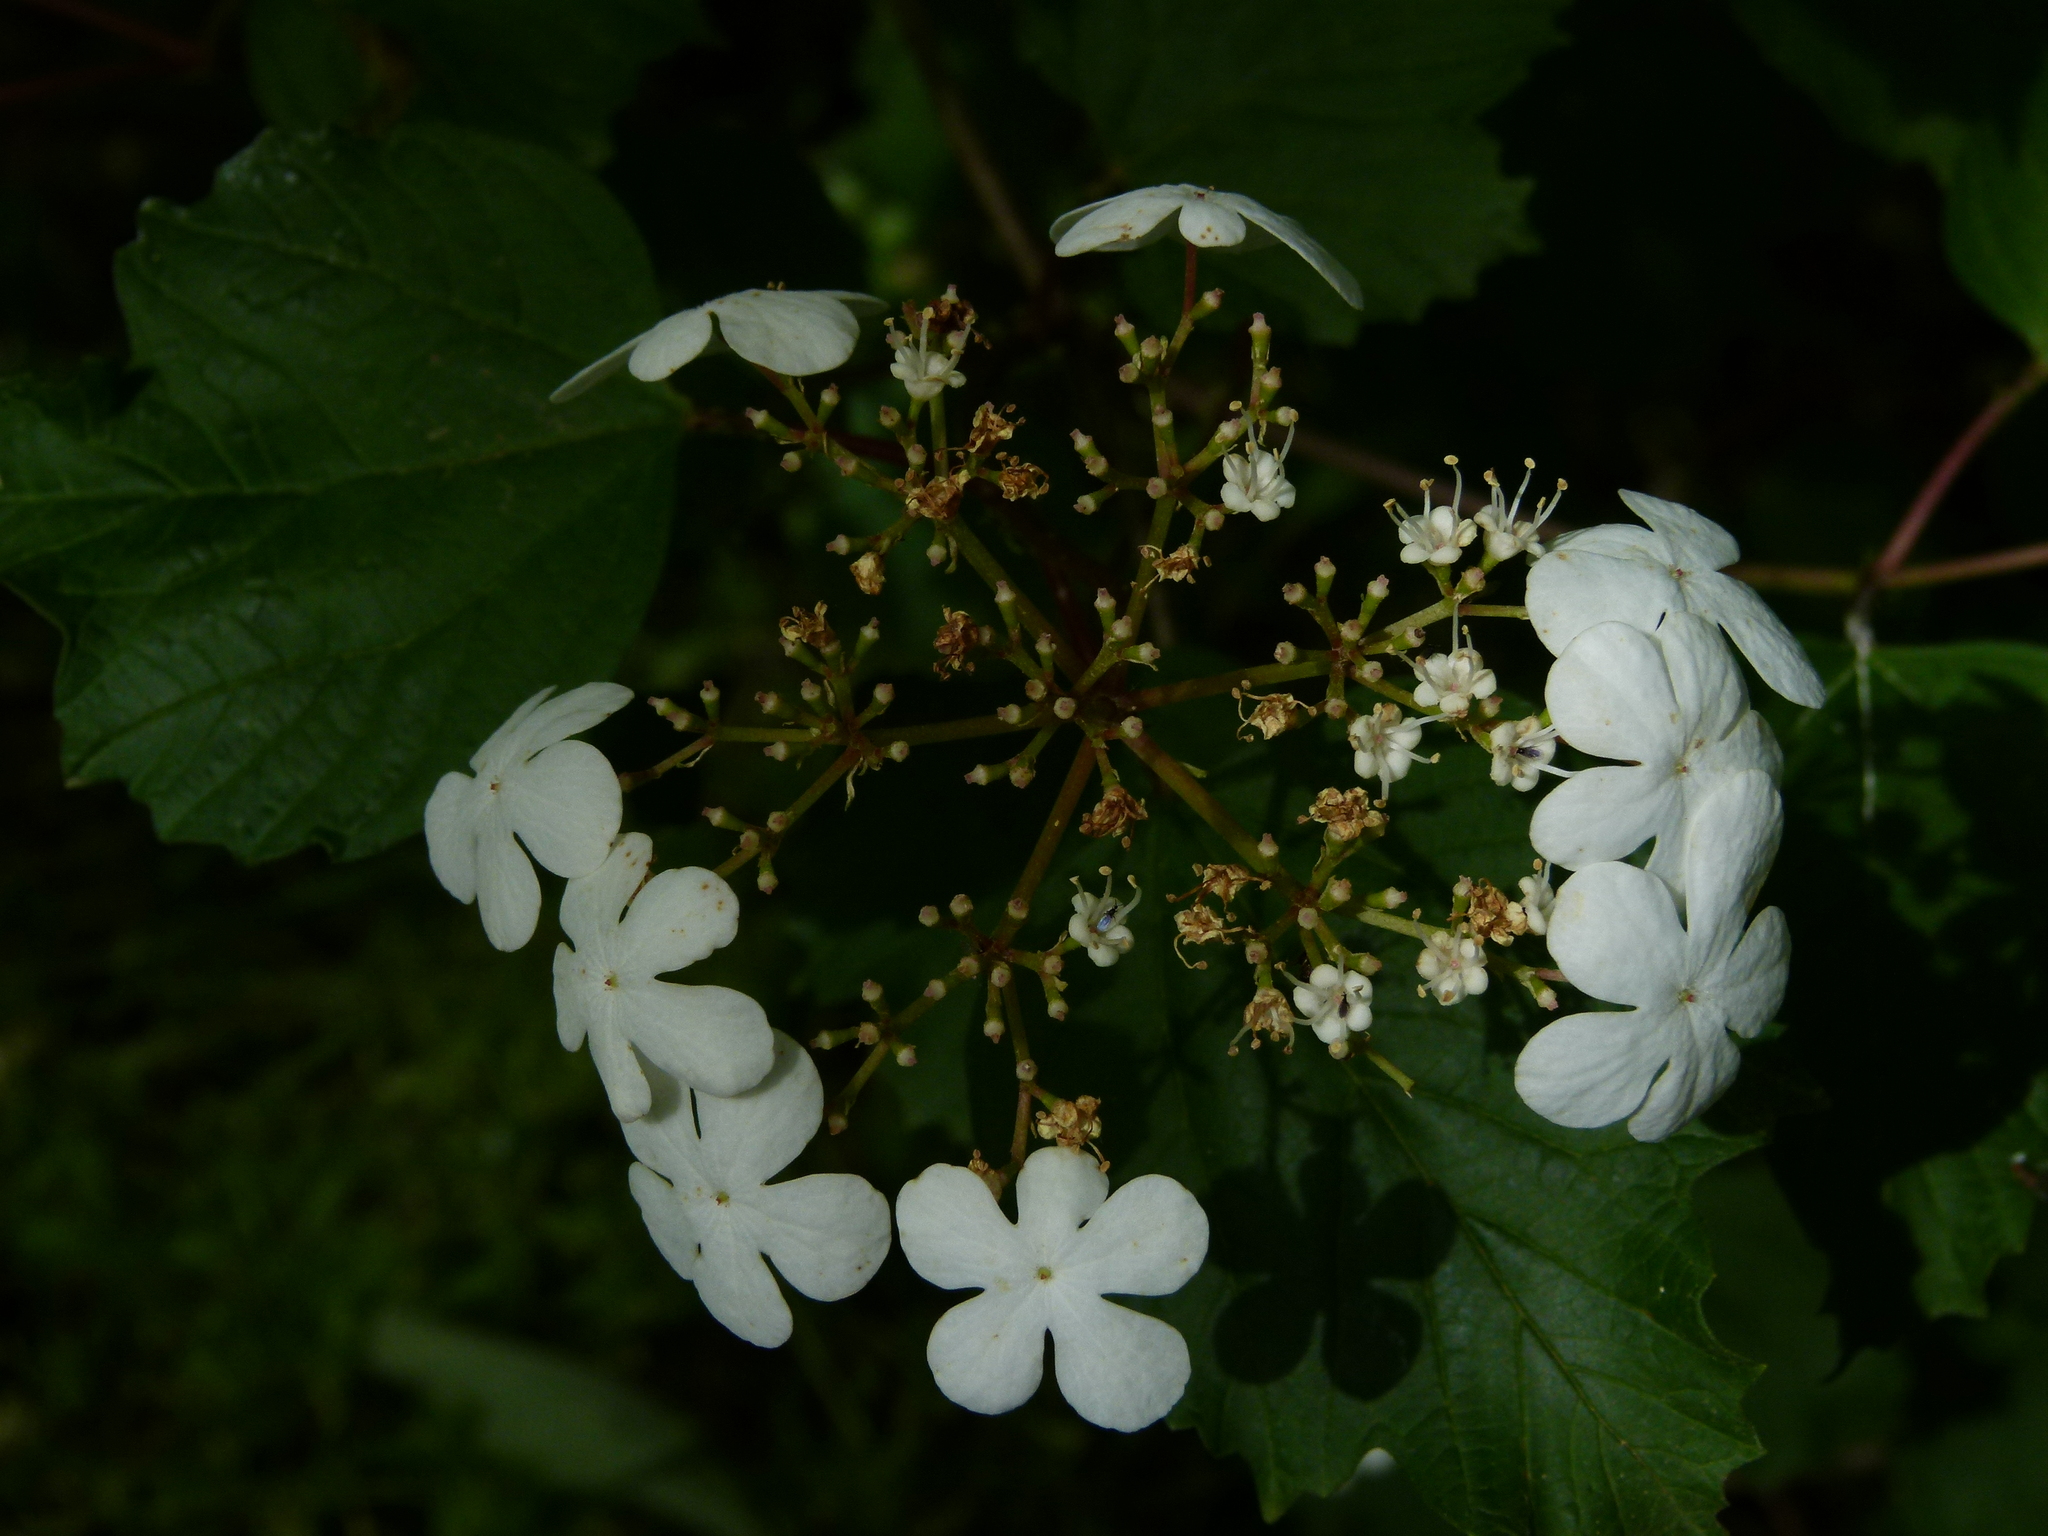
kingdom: Plantae
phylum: Tracheophyta
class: Magnoliopsida
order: Dipsacales
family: Viburnaceae
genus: Viburnum
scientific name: Viburnum opulus
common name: Guelder-rose
